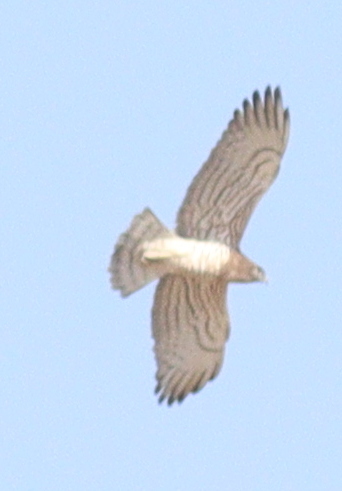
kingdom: Animalia
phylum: Chordata
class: Aves
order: Accipitriformes
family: Accipitridae
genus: Circaetus
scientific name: Circaetus gallicus
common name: Short-toed snake eagle
